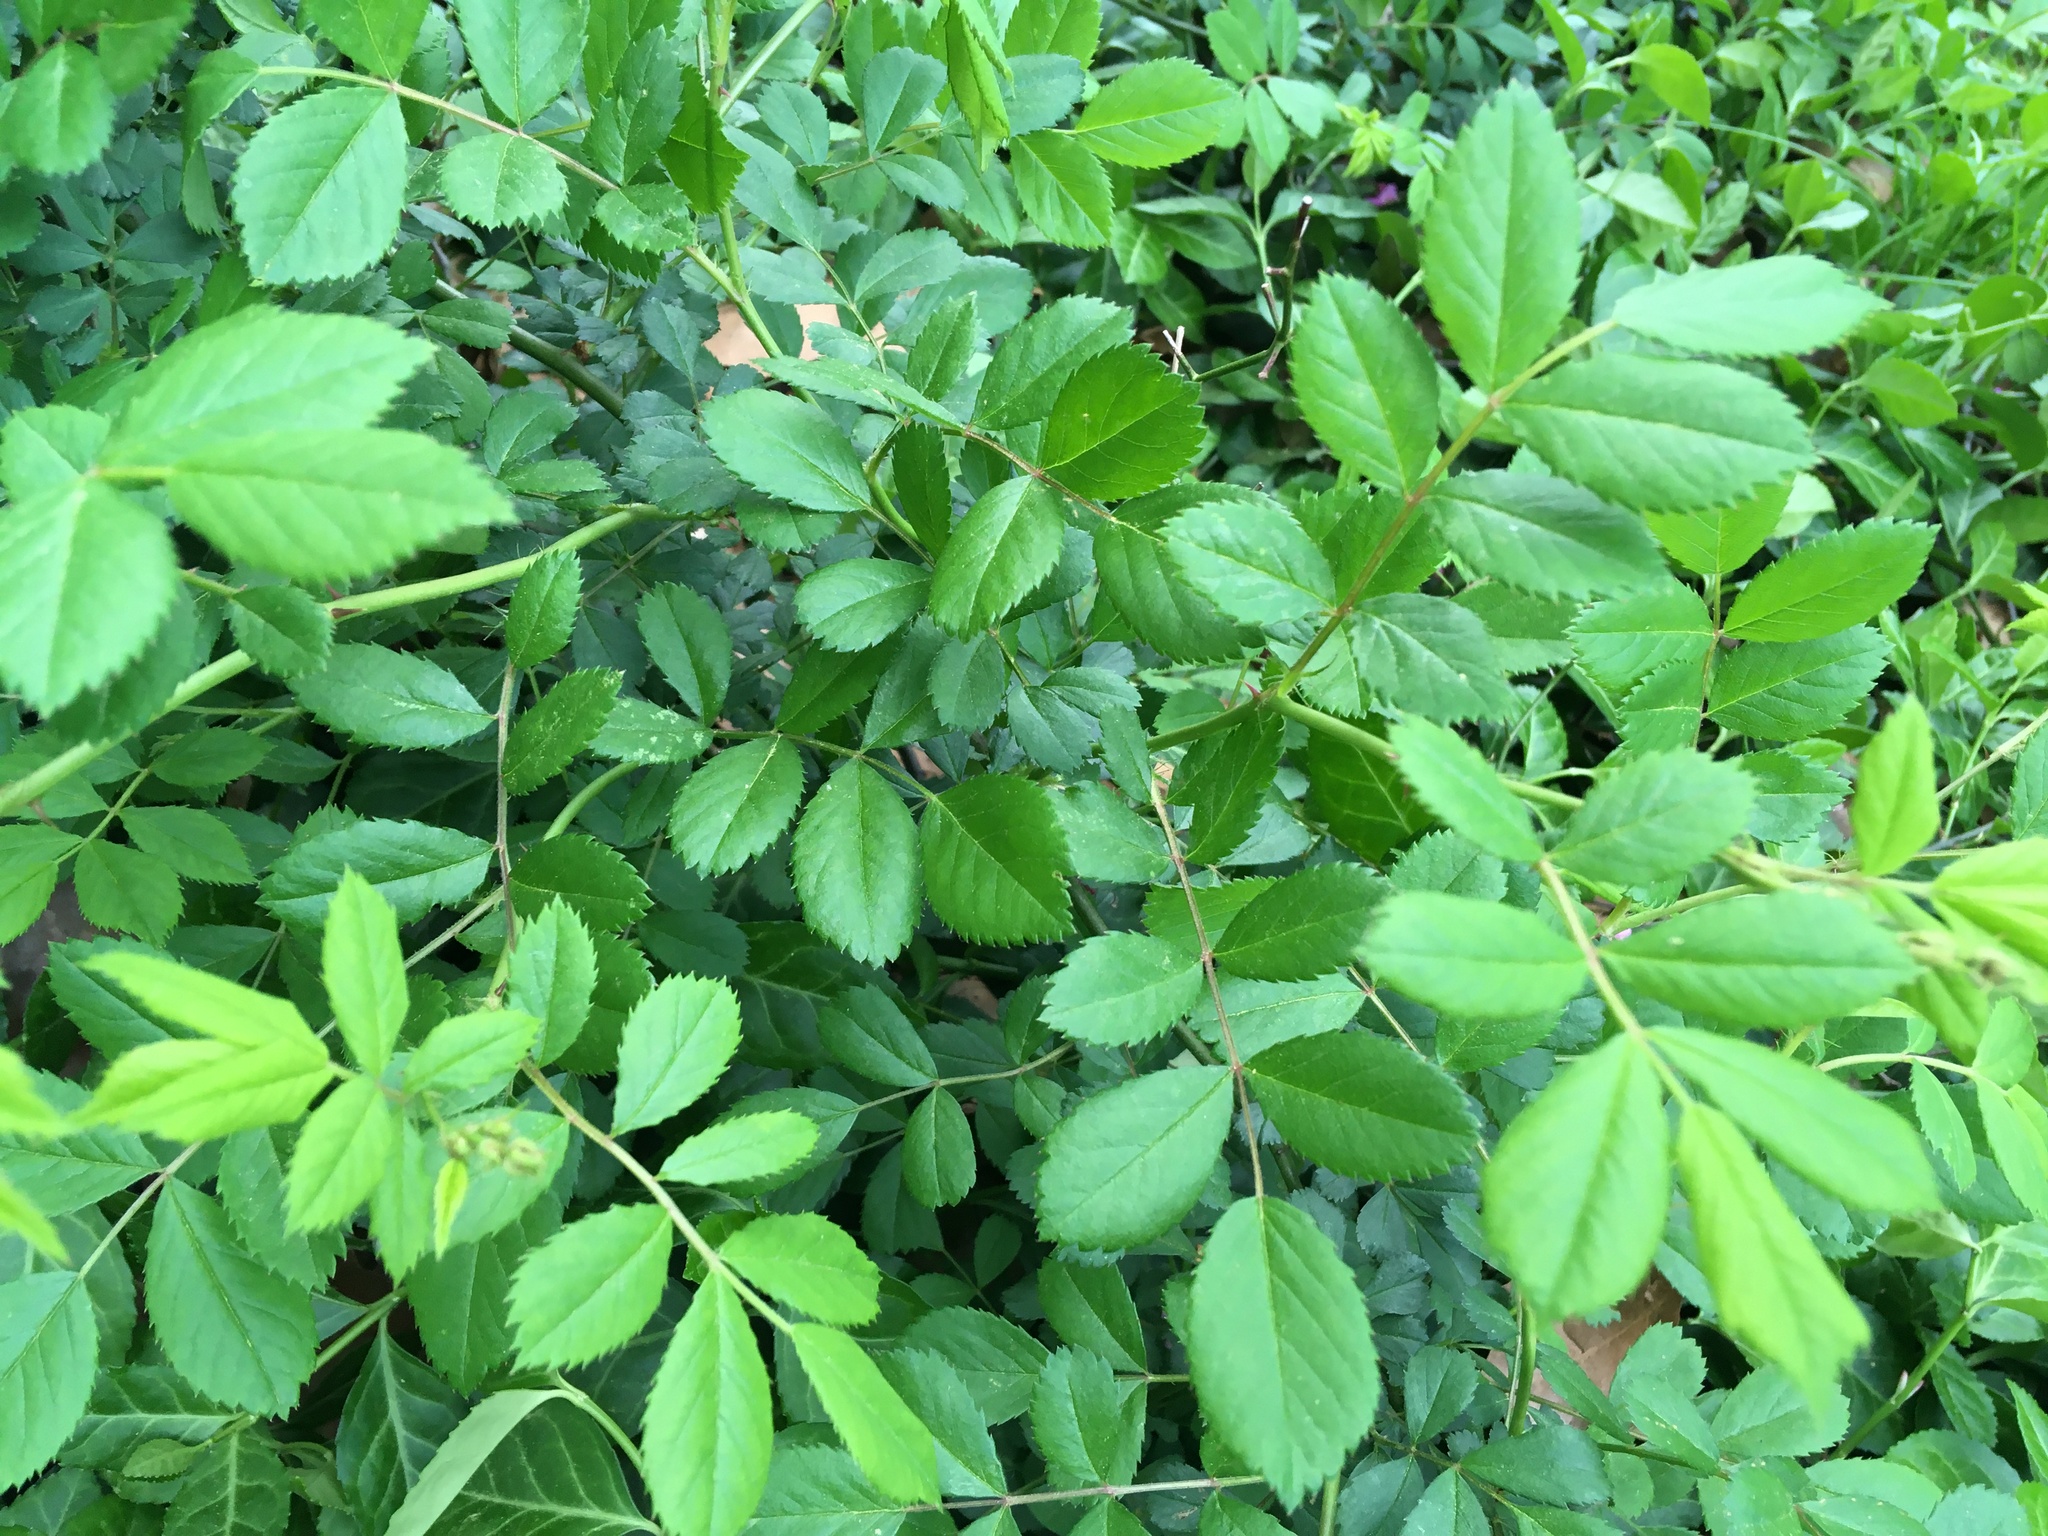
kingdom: Plantae
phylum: Tracheophyta
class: Magnoliopsida
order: Rosales
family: Rosaceae
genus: Rosa
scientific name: Rosa multiflora
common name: Multiflora rose
